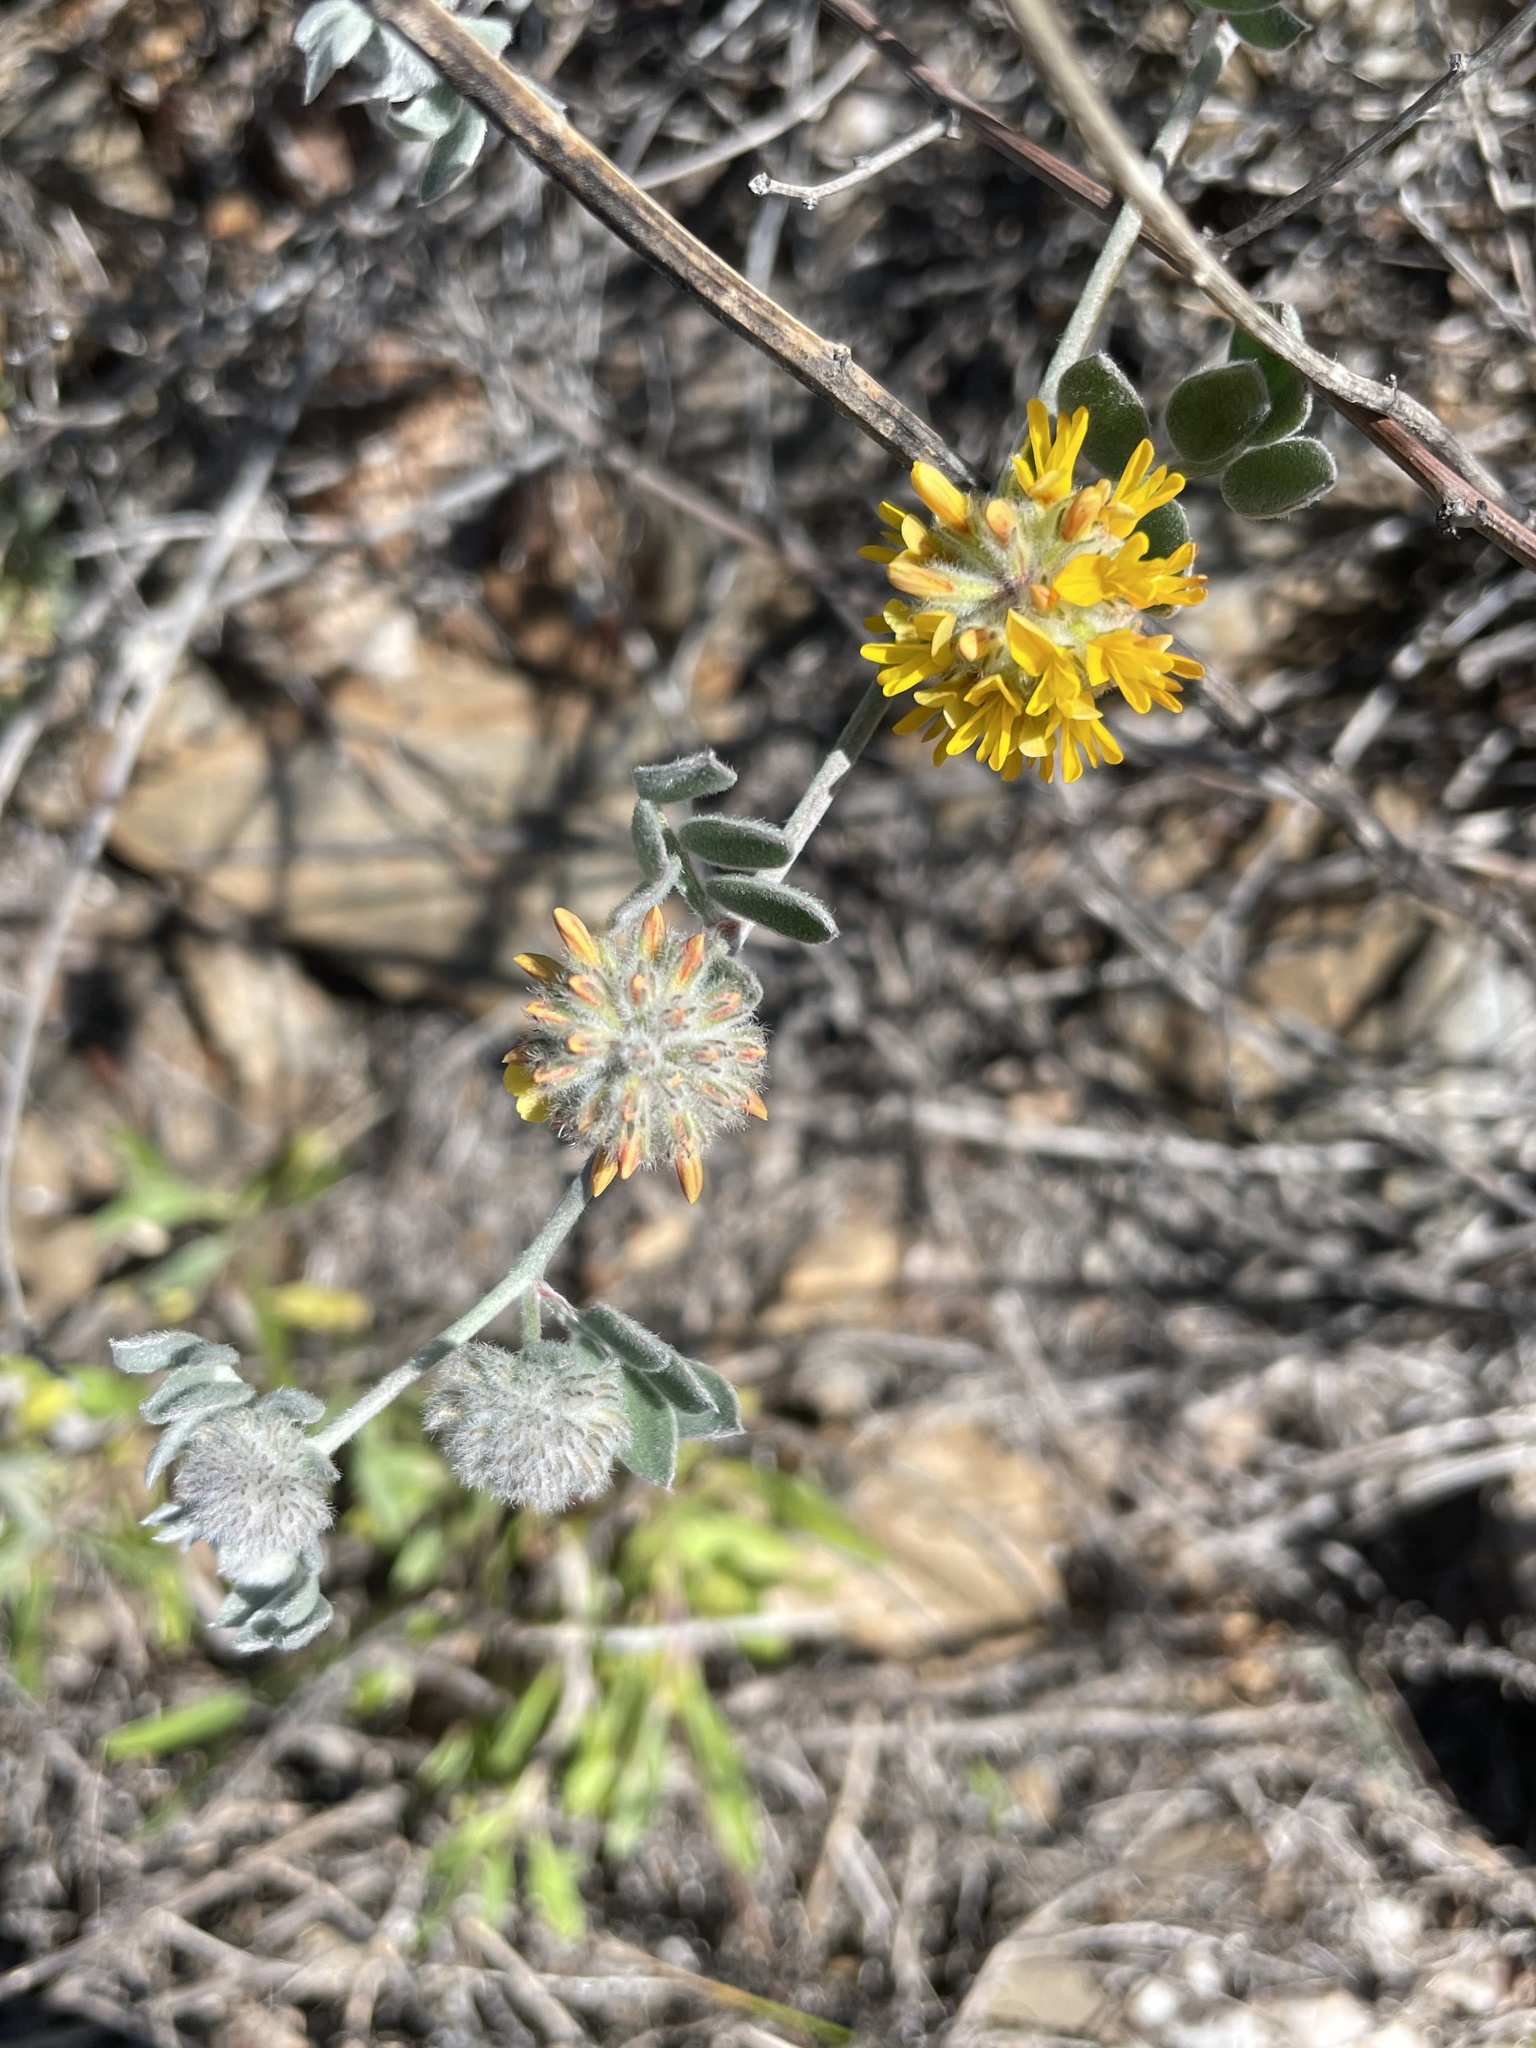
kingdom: Plantae
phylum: Tracheophyta
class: Magnoliopsida
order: Fabales
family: Fabaceae
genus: Acmispon
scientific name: Acmispon argophyllus
